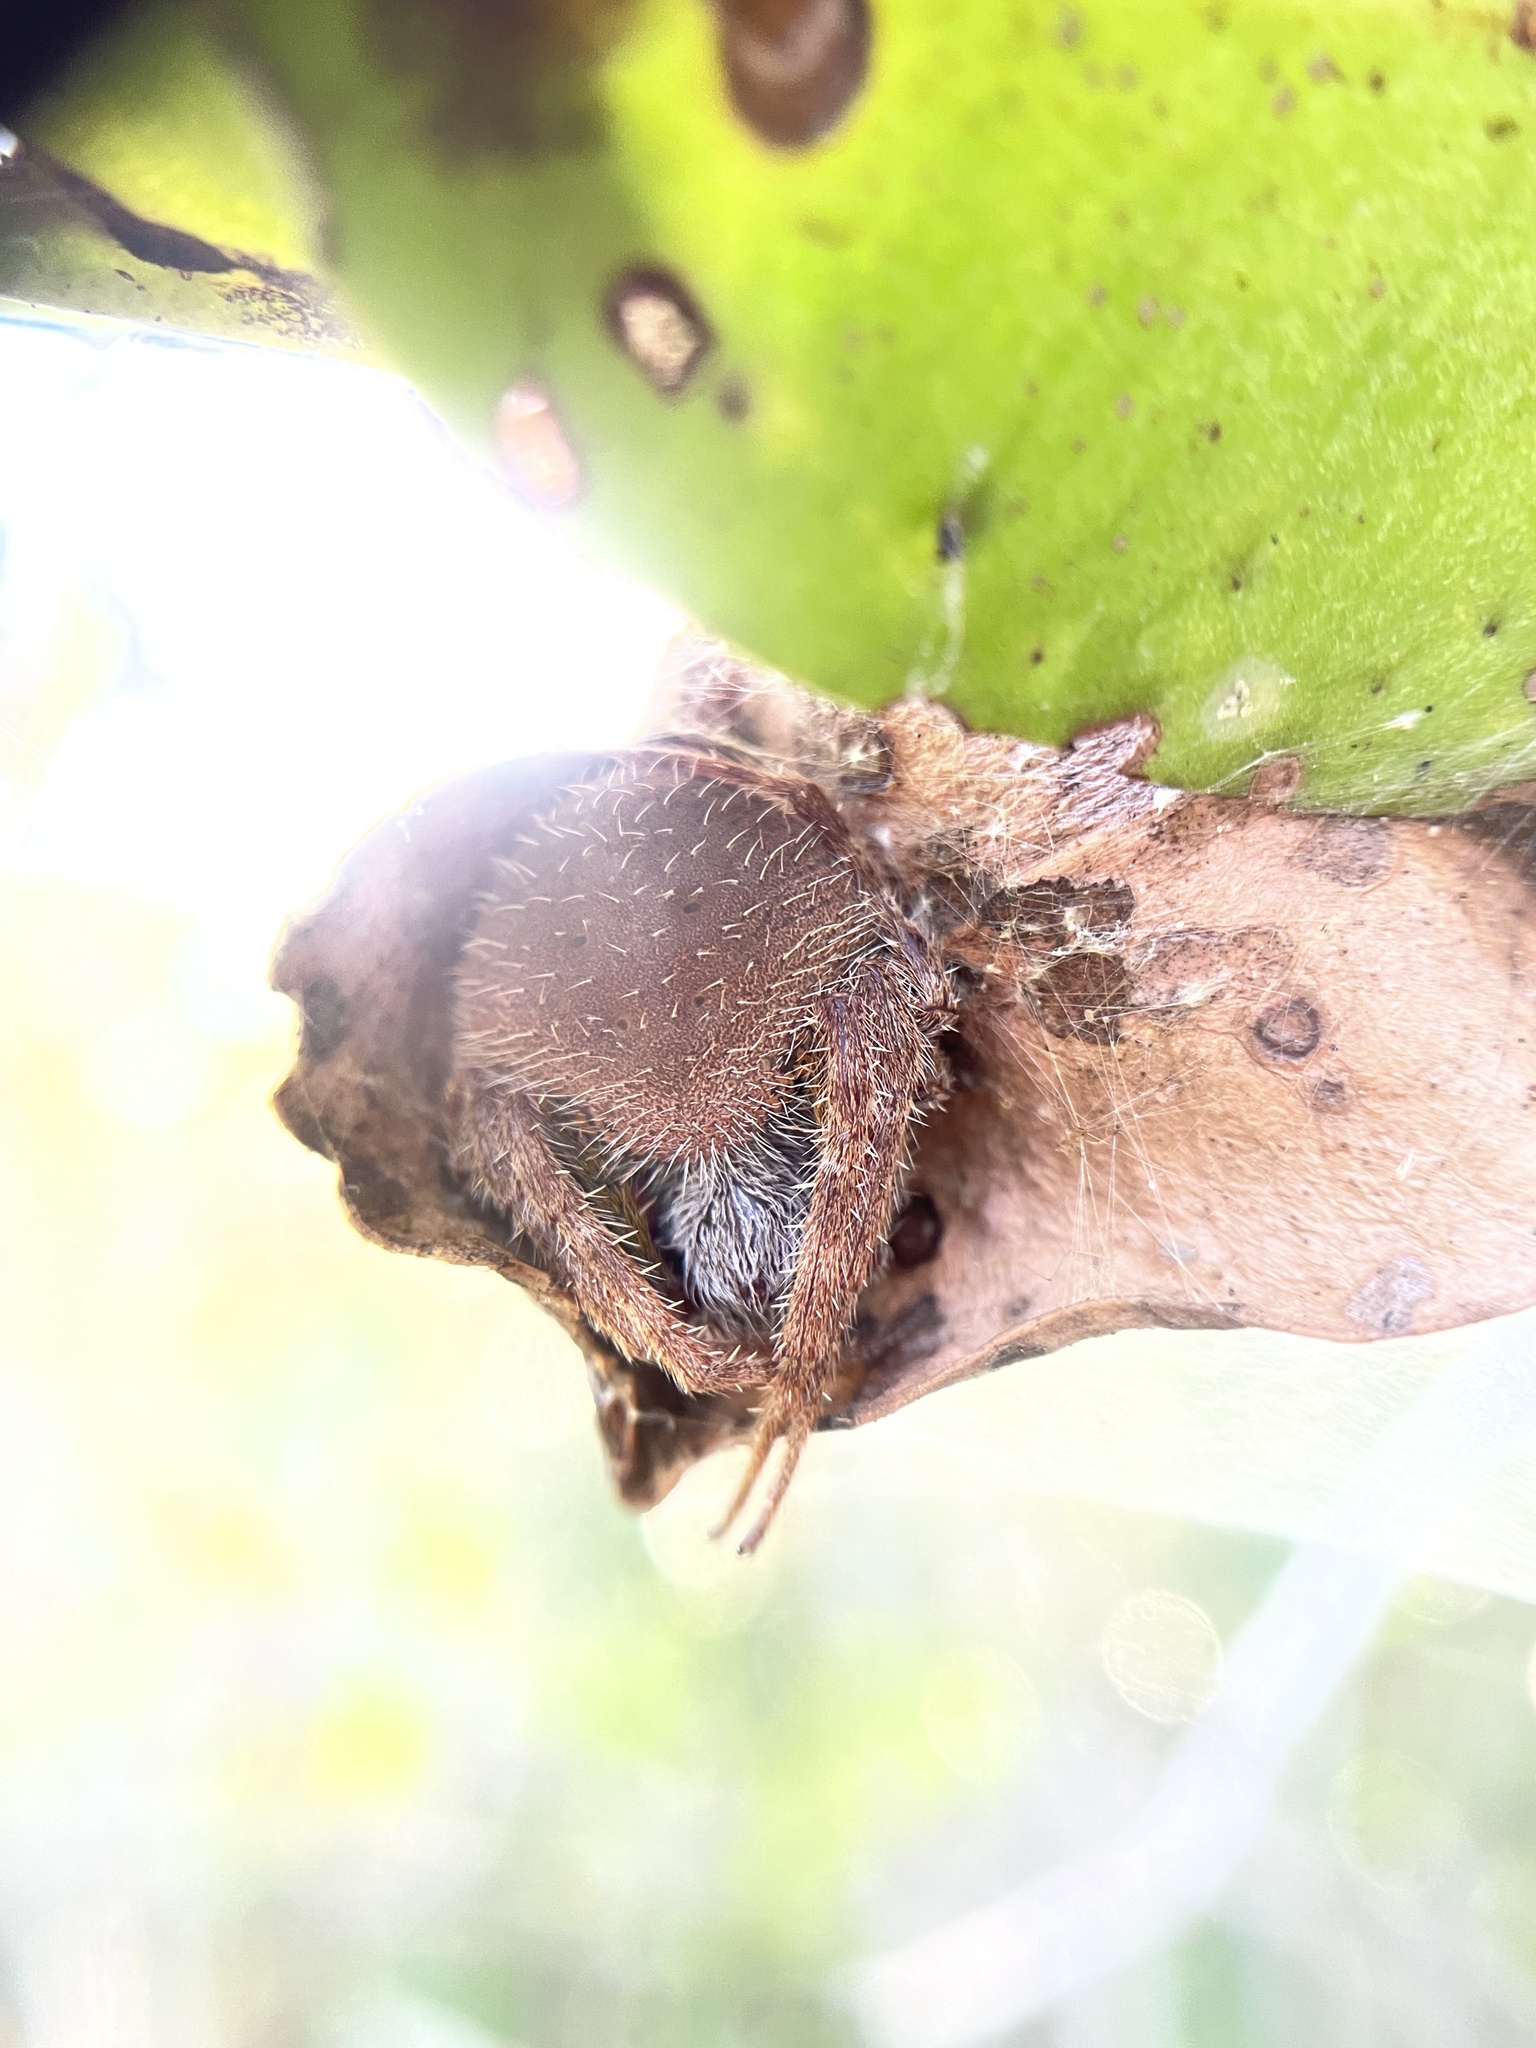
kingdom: Animalia
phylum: Arthropoda
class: Arachnida
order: Araneae
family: Araneidae
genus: Eriophora
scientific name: Eriophora ravilla
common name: Orb weavers
